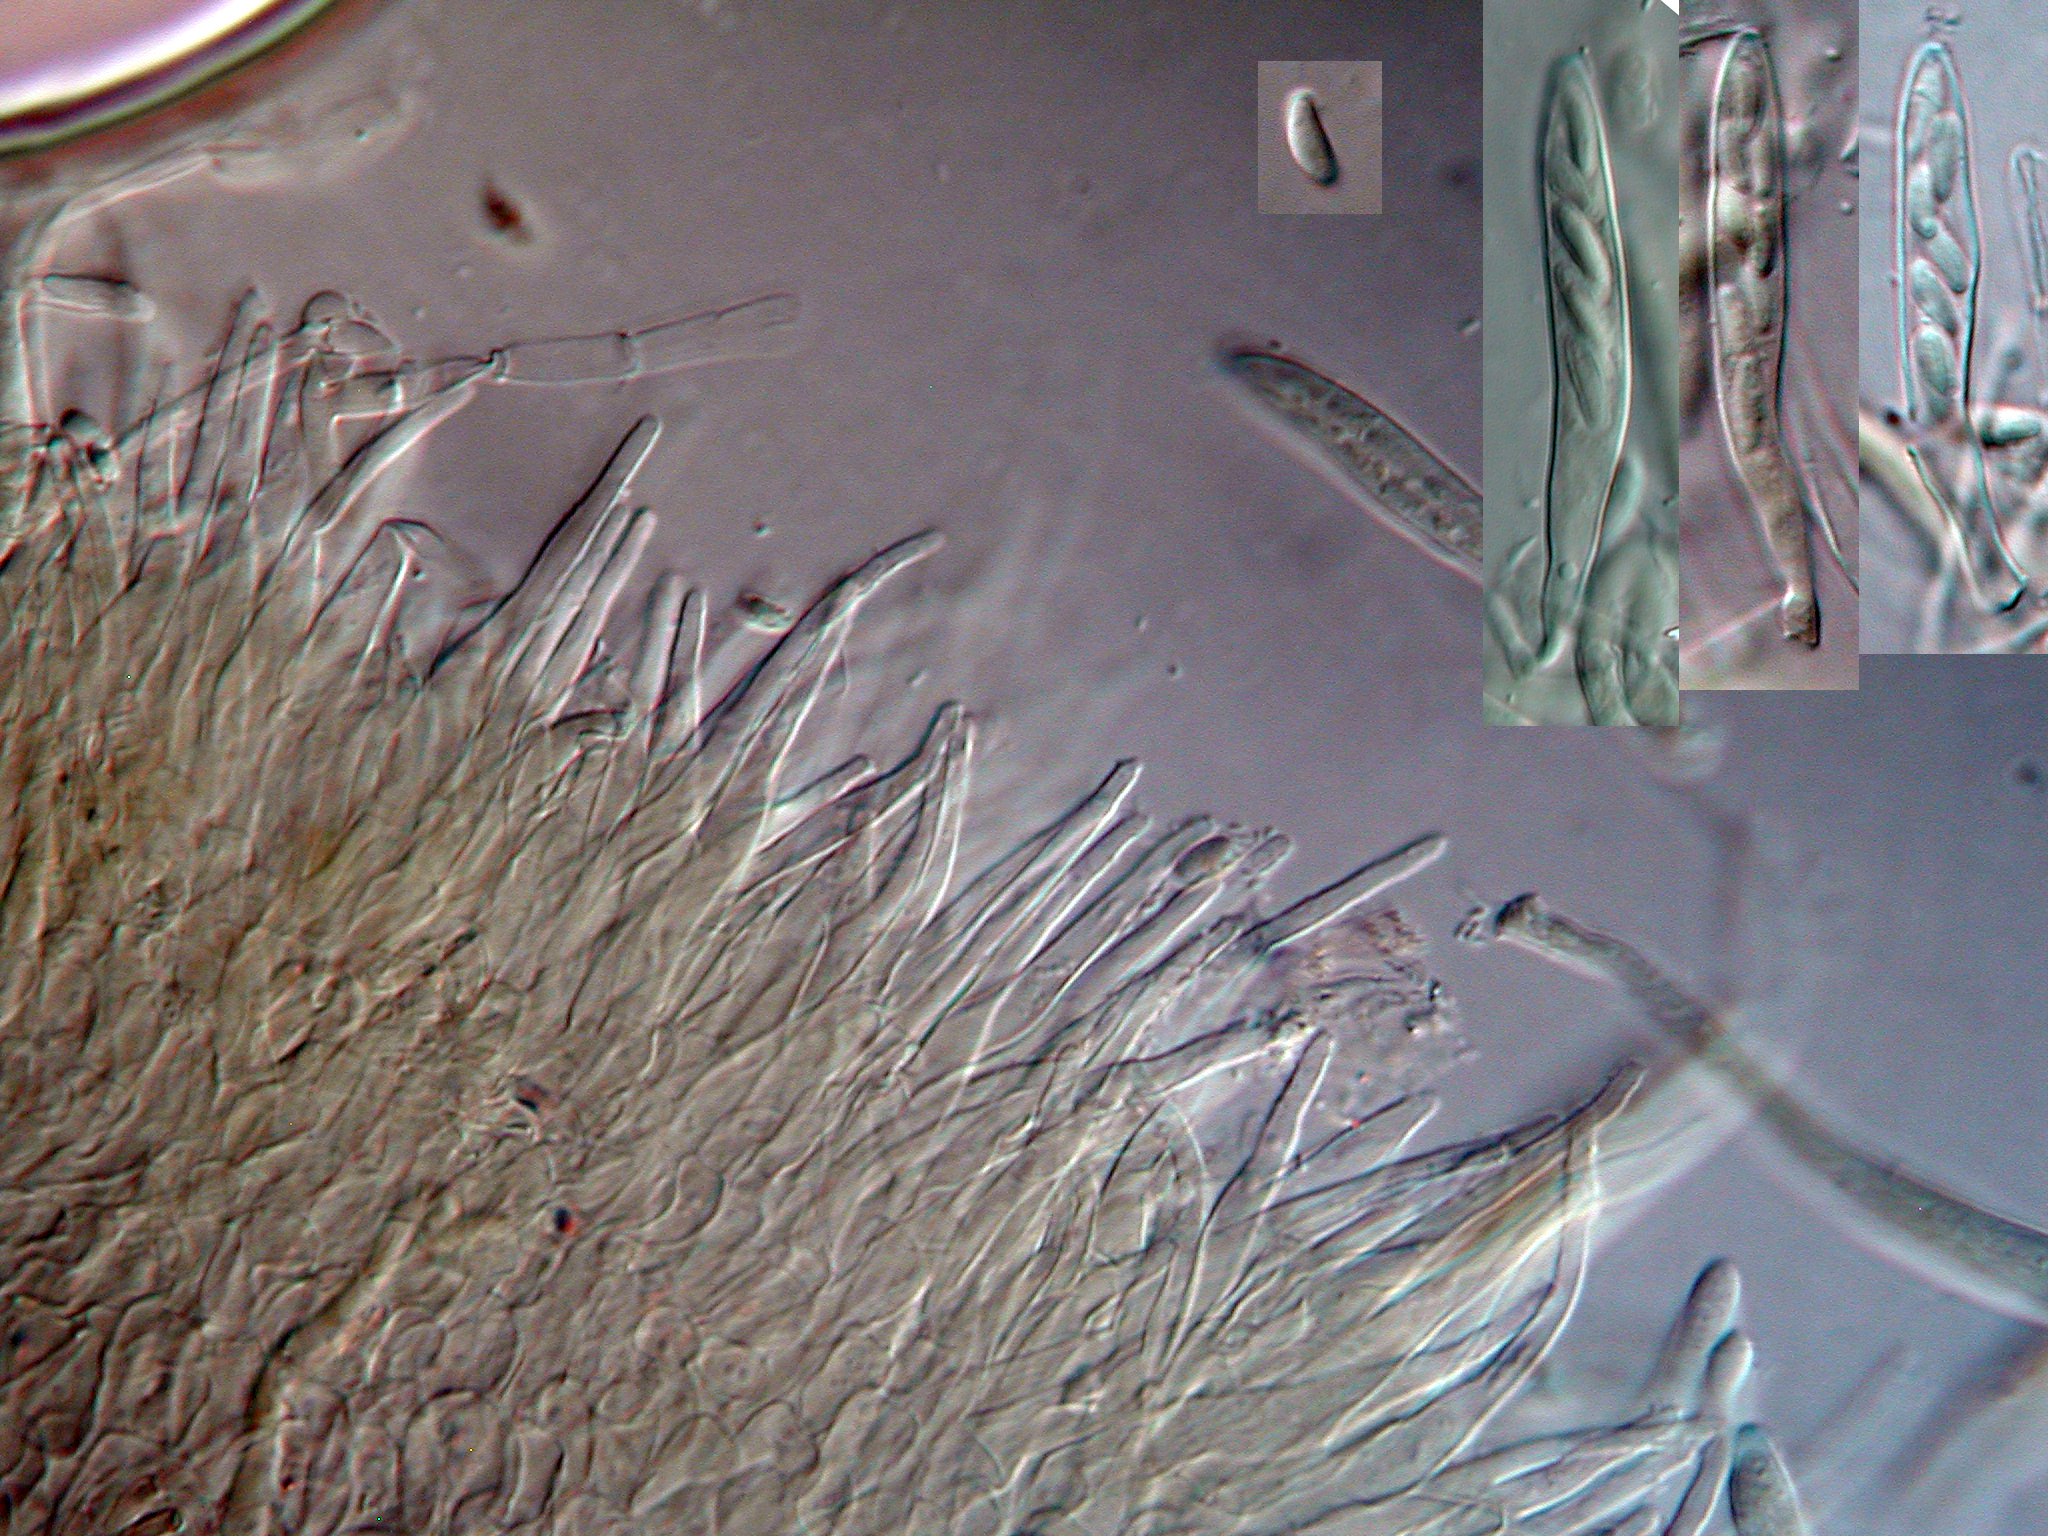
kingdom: Fungi
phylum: Ascomycota
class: Leotiomycetes
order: Helotiales
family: Hyaloscyphaceae
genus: Eupezizella
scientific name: Eupezizella aureliella
